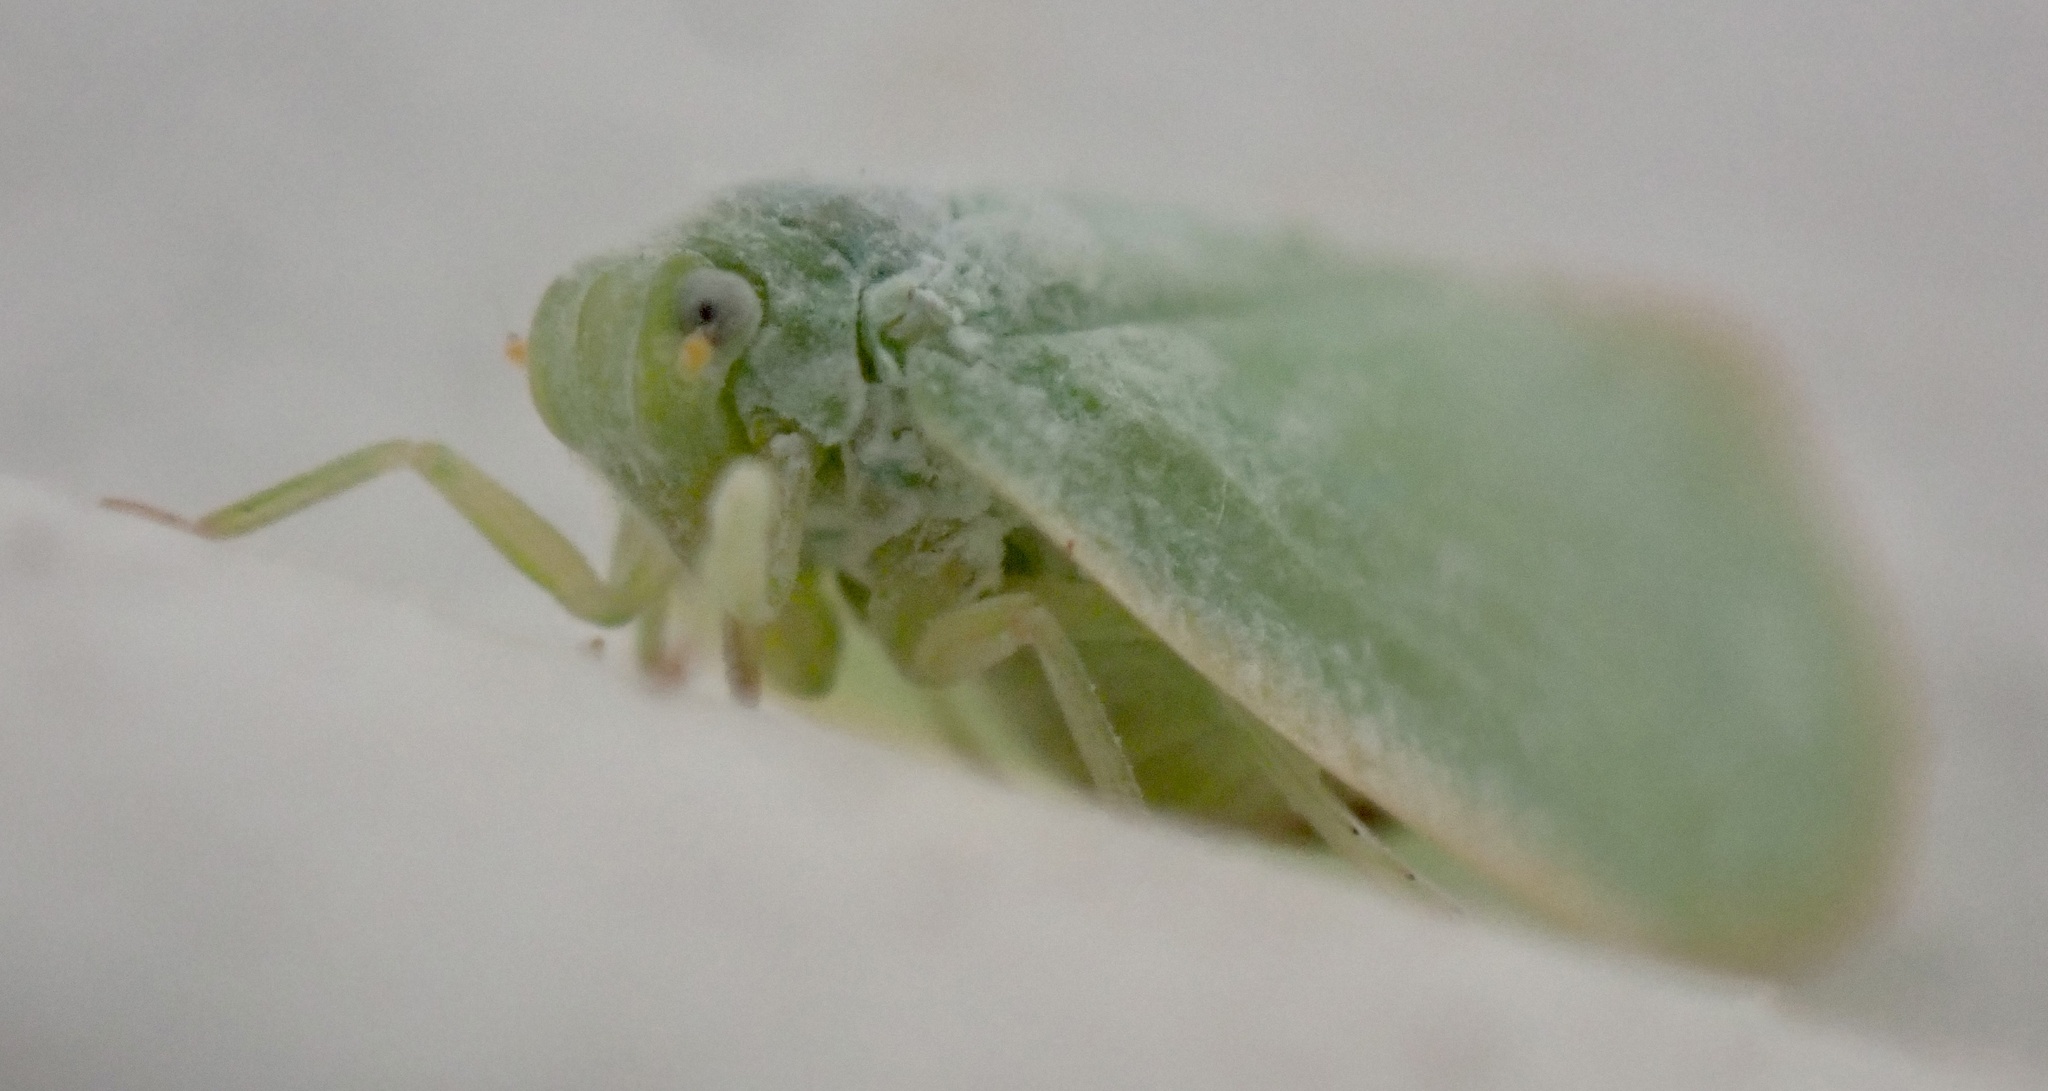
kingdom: Animalia
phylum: Arthropoda
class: Insecta
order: Hemiptera
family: Flatidae
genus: Ormenoides
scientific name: Ormenoides venusta
